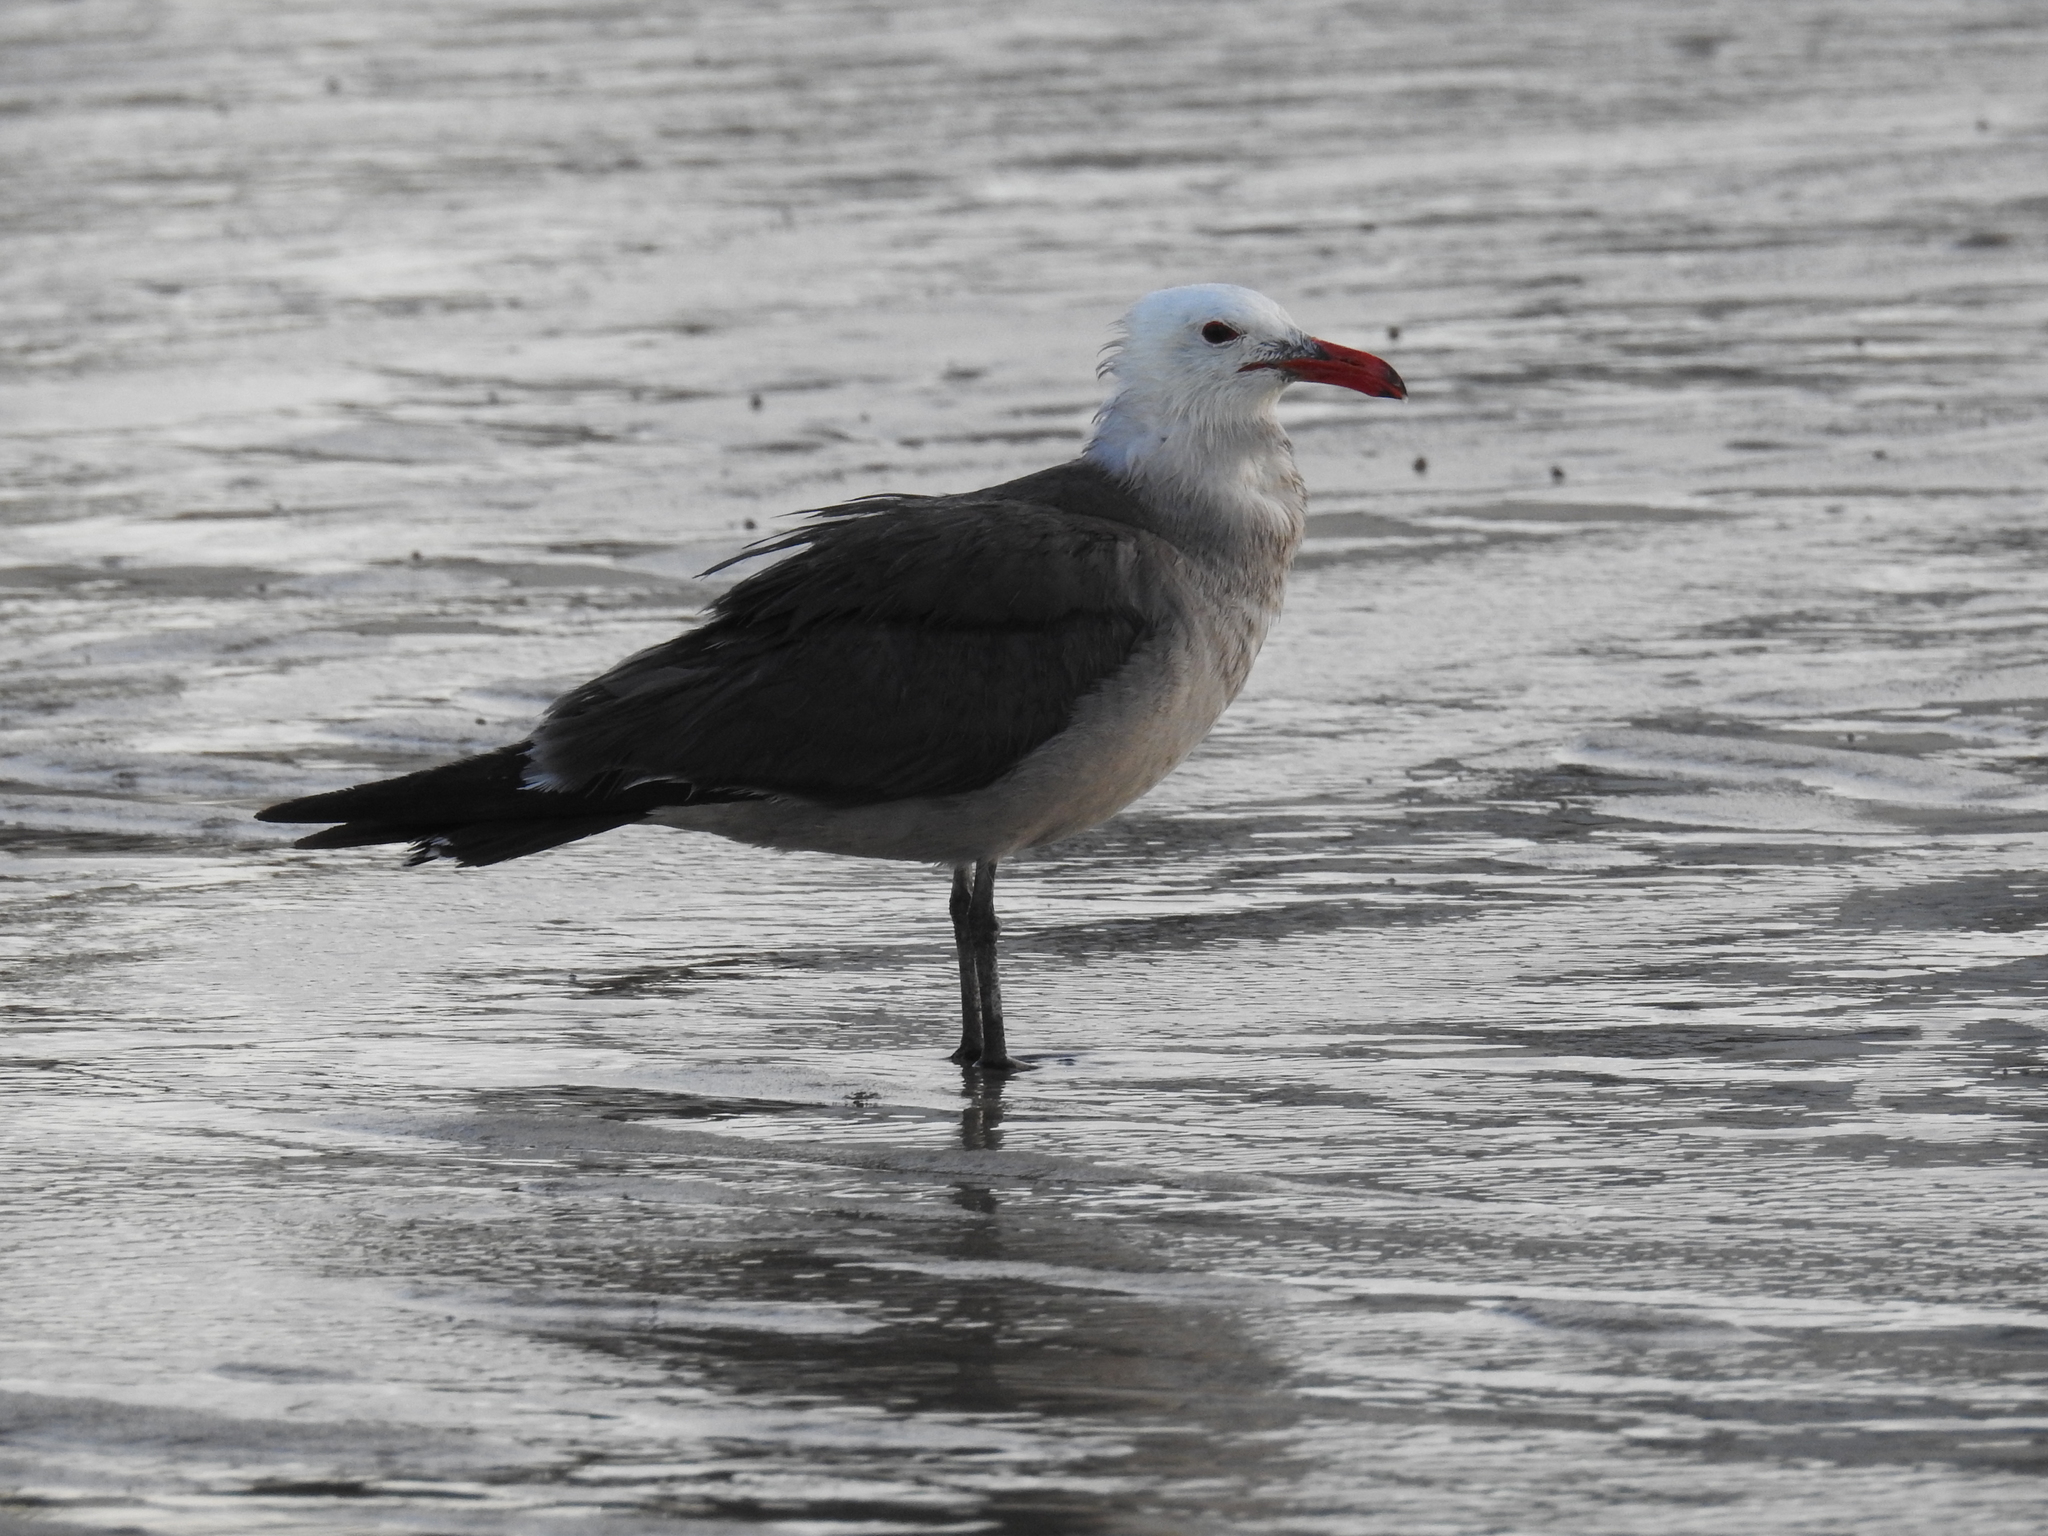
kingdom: Animalia
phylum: Chordata
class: Aves
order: Charadriiformes
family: Laridae
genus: Larus
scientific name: Larus heermanni
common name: Heermann's gull
